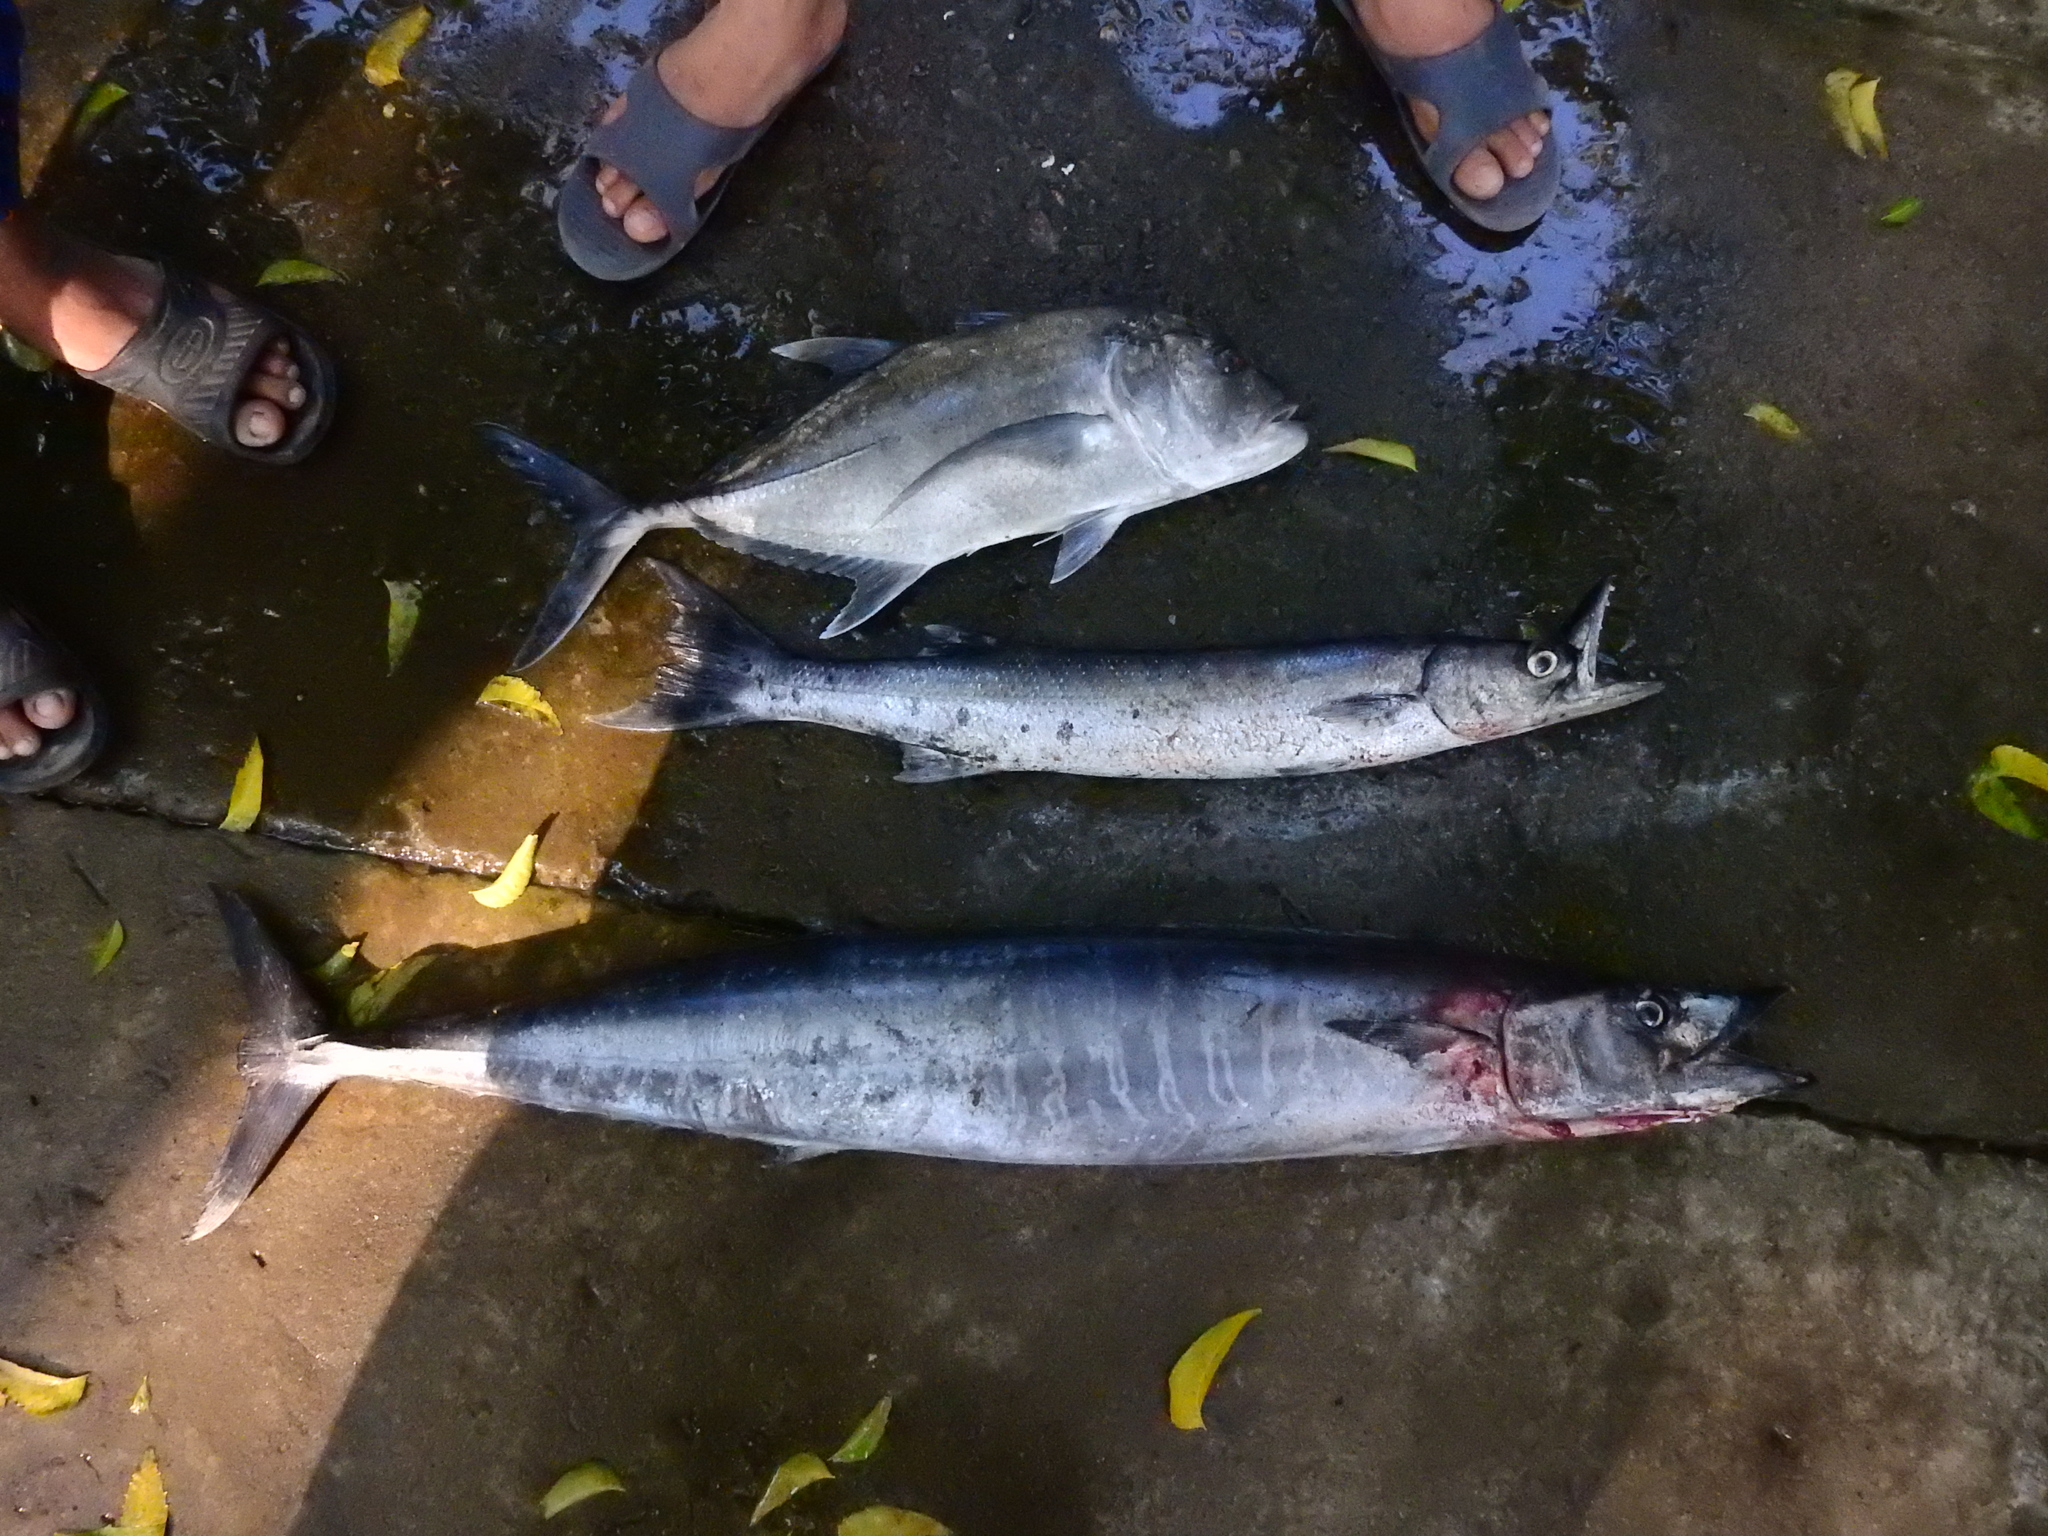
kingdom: Animalia
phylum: Chordata
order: Perciformes
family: Scombridae
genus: Acanthocybium
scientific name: Acanthocybium solandri
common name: Wahoo
